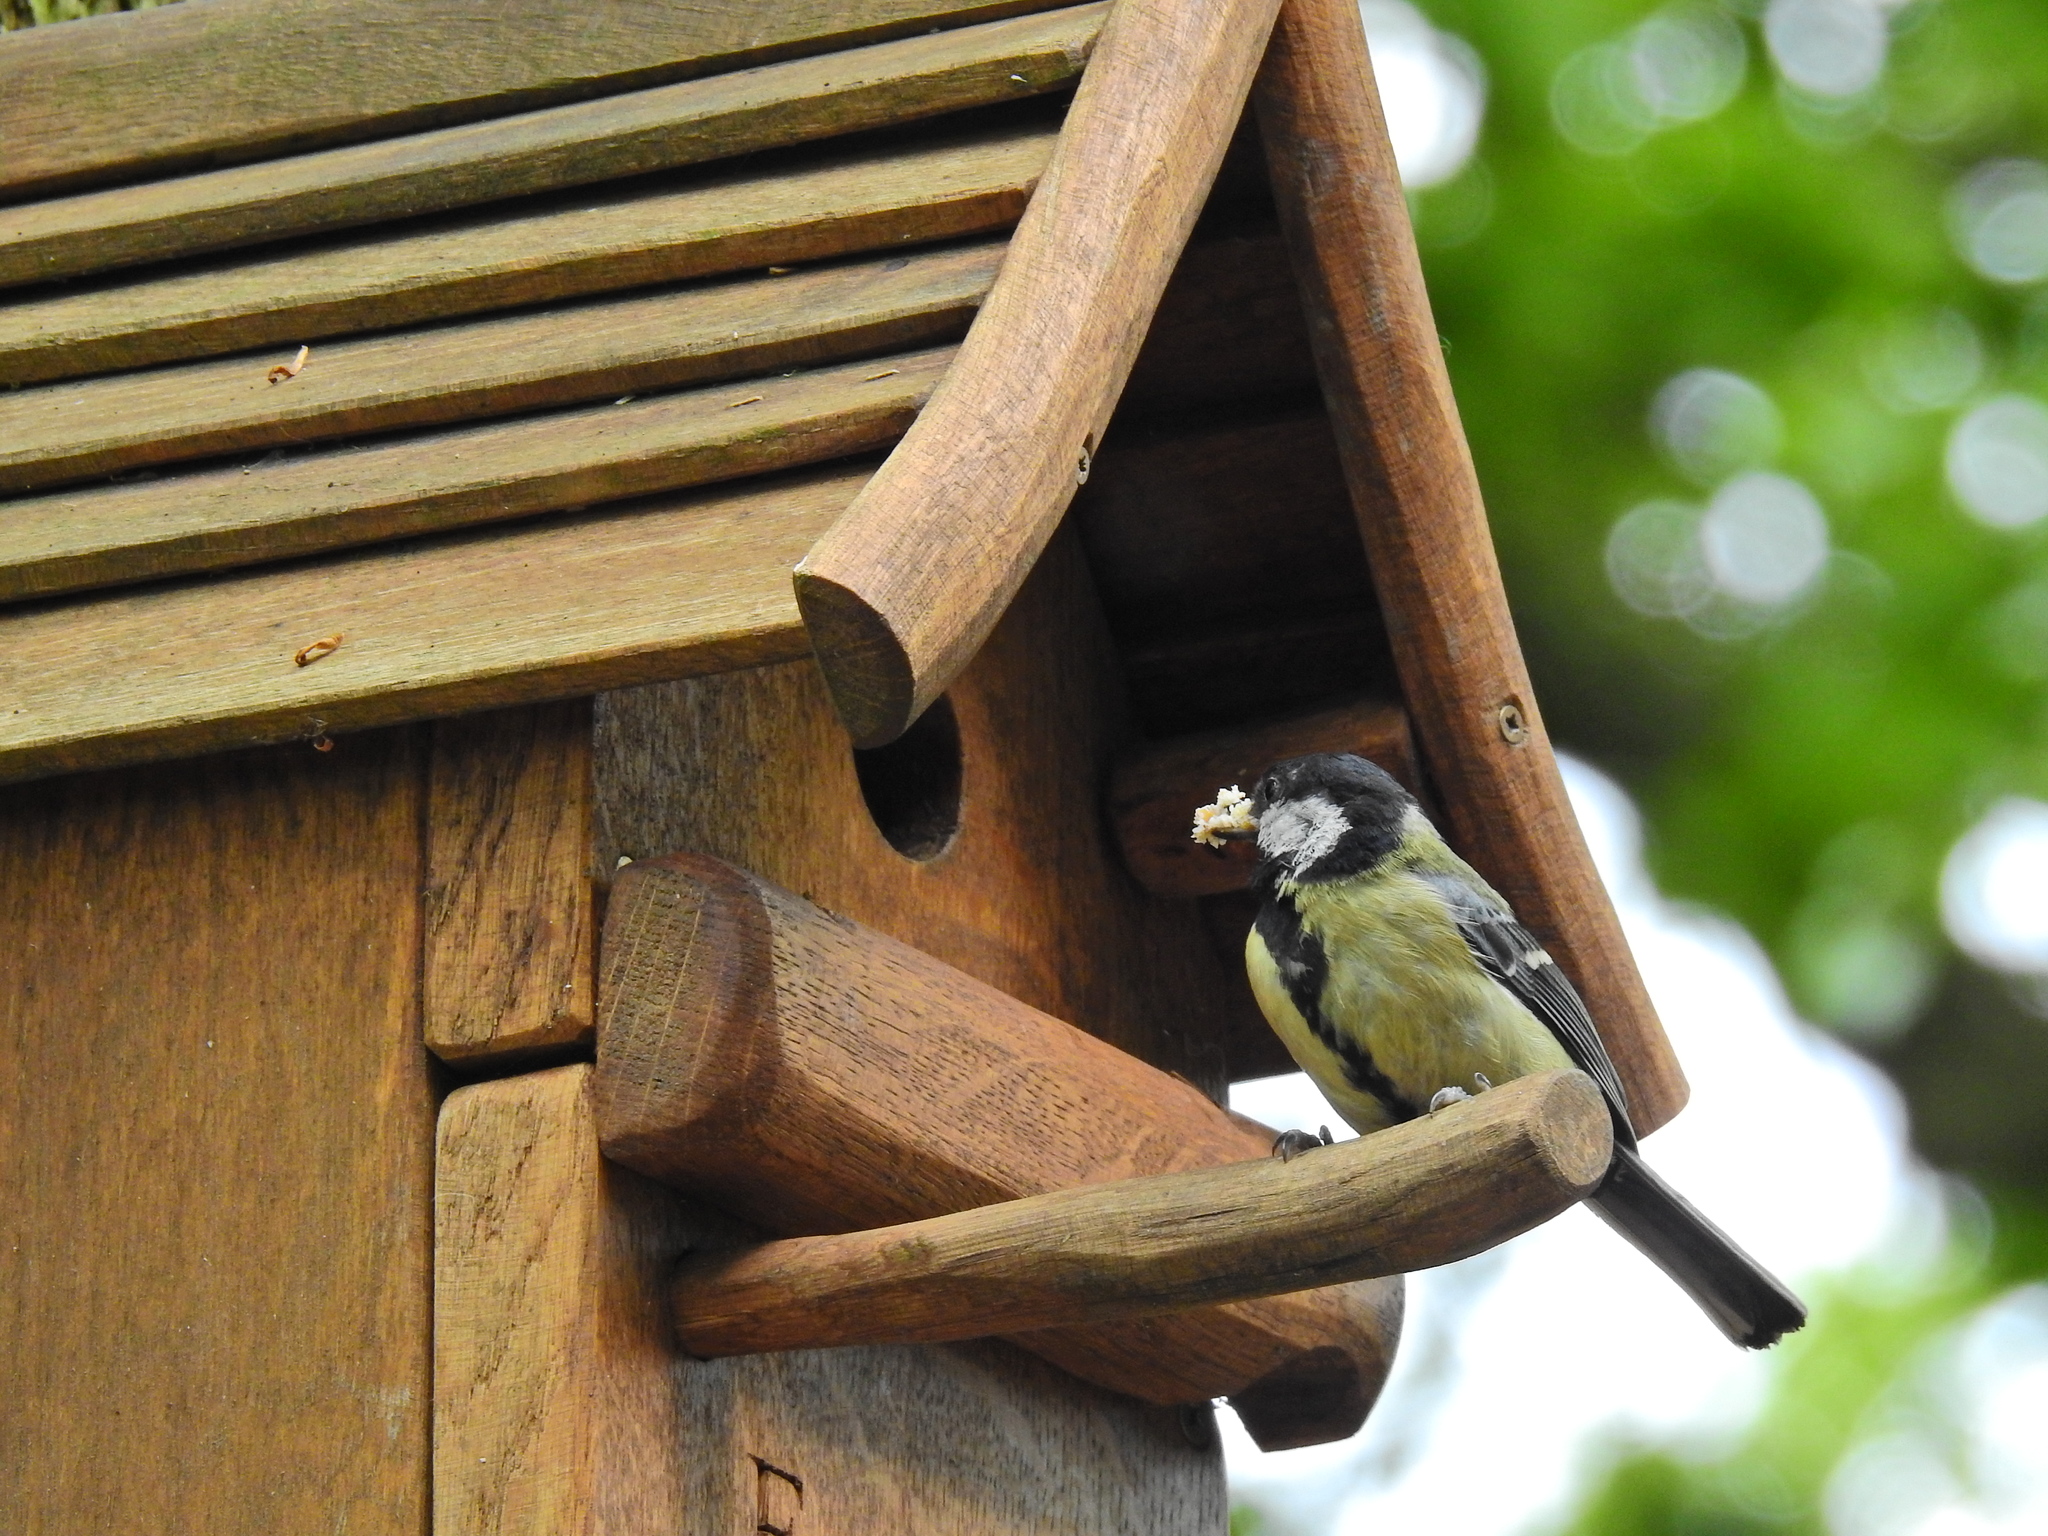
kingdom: Animalia
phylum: Chordata
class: Aves
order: Passeriformes
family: Paridae
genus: Parus
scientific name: Parus major
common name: Great tit
